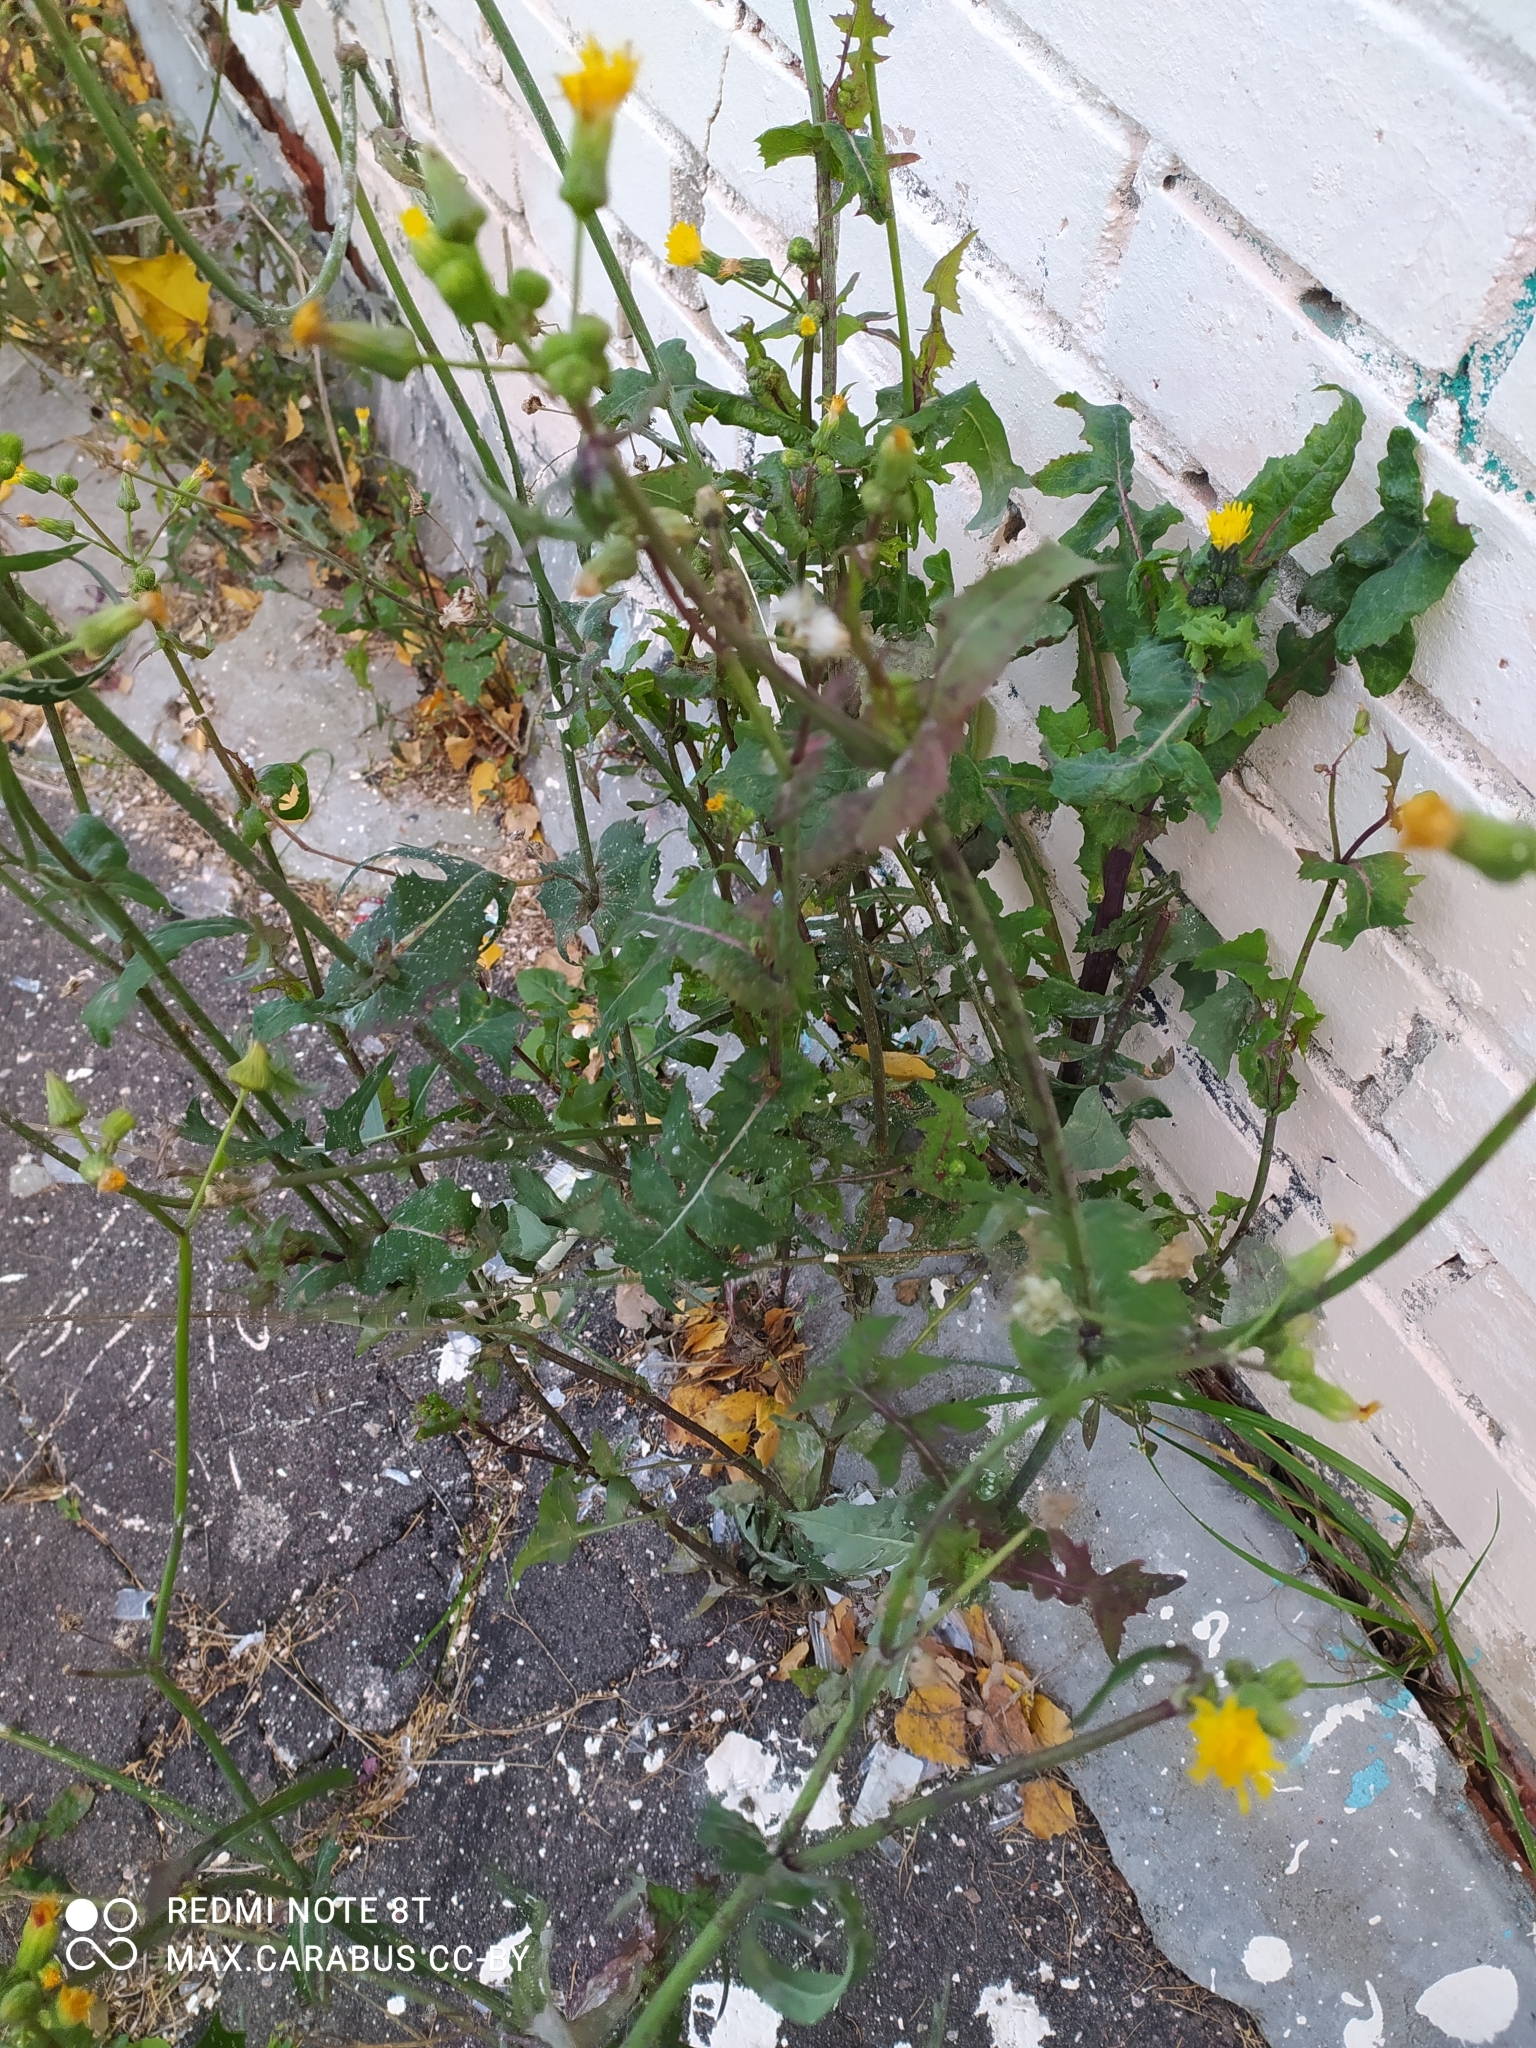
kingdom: Plantae
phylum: Tracheophyta
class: Magnoliopsida
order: Asterales
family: Asteraceae
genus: Sonchus
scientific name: Sonchus oleraceus
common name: Common sowthistle
